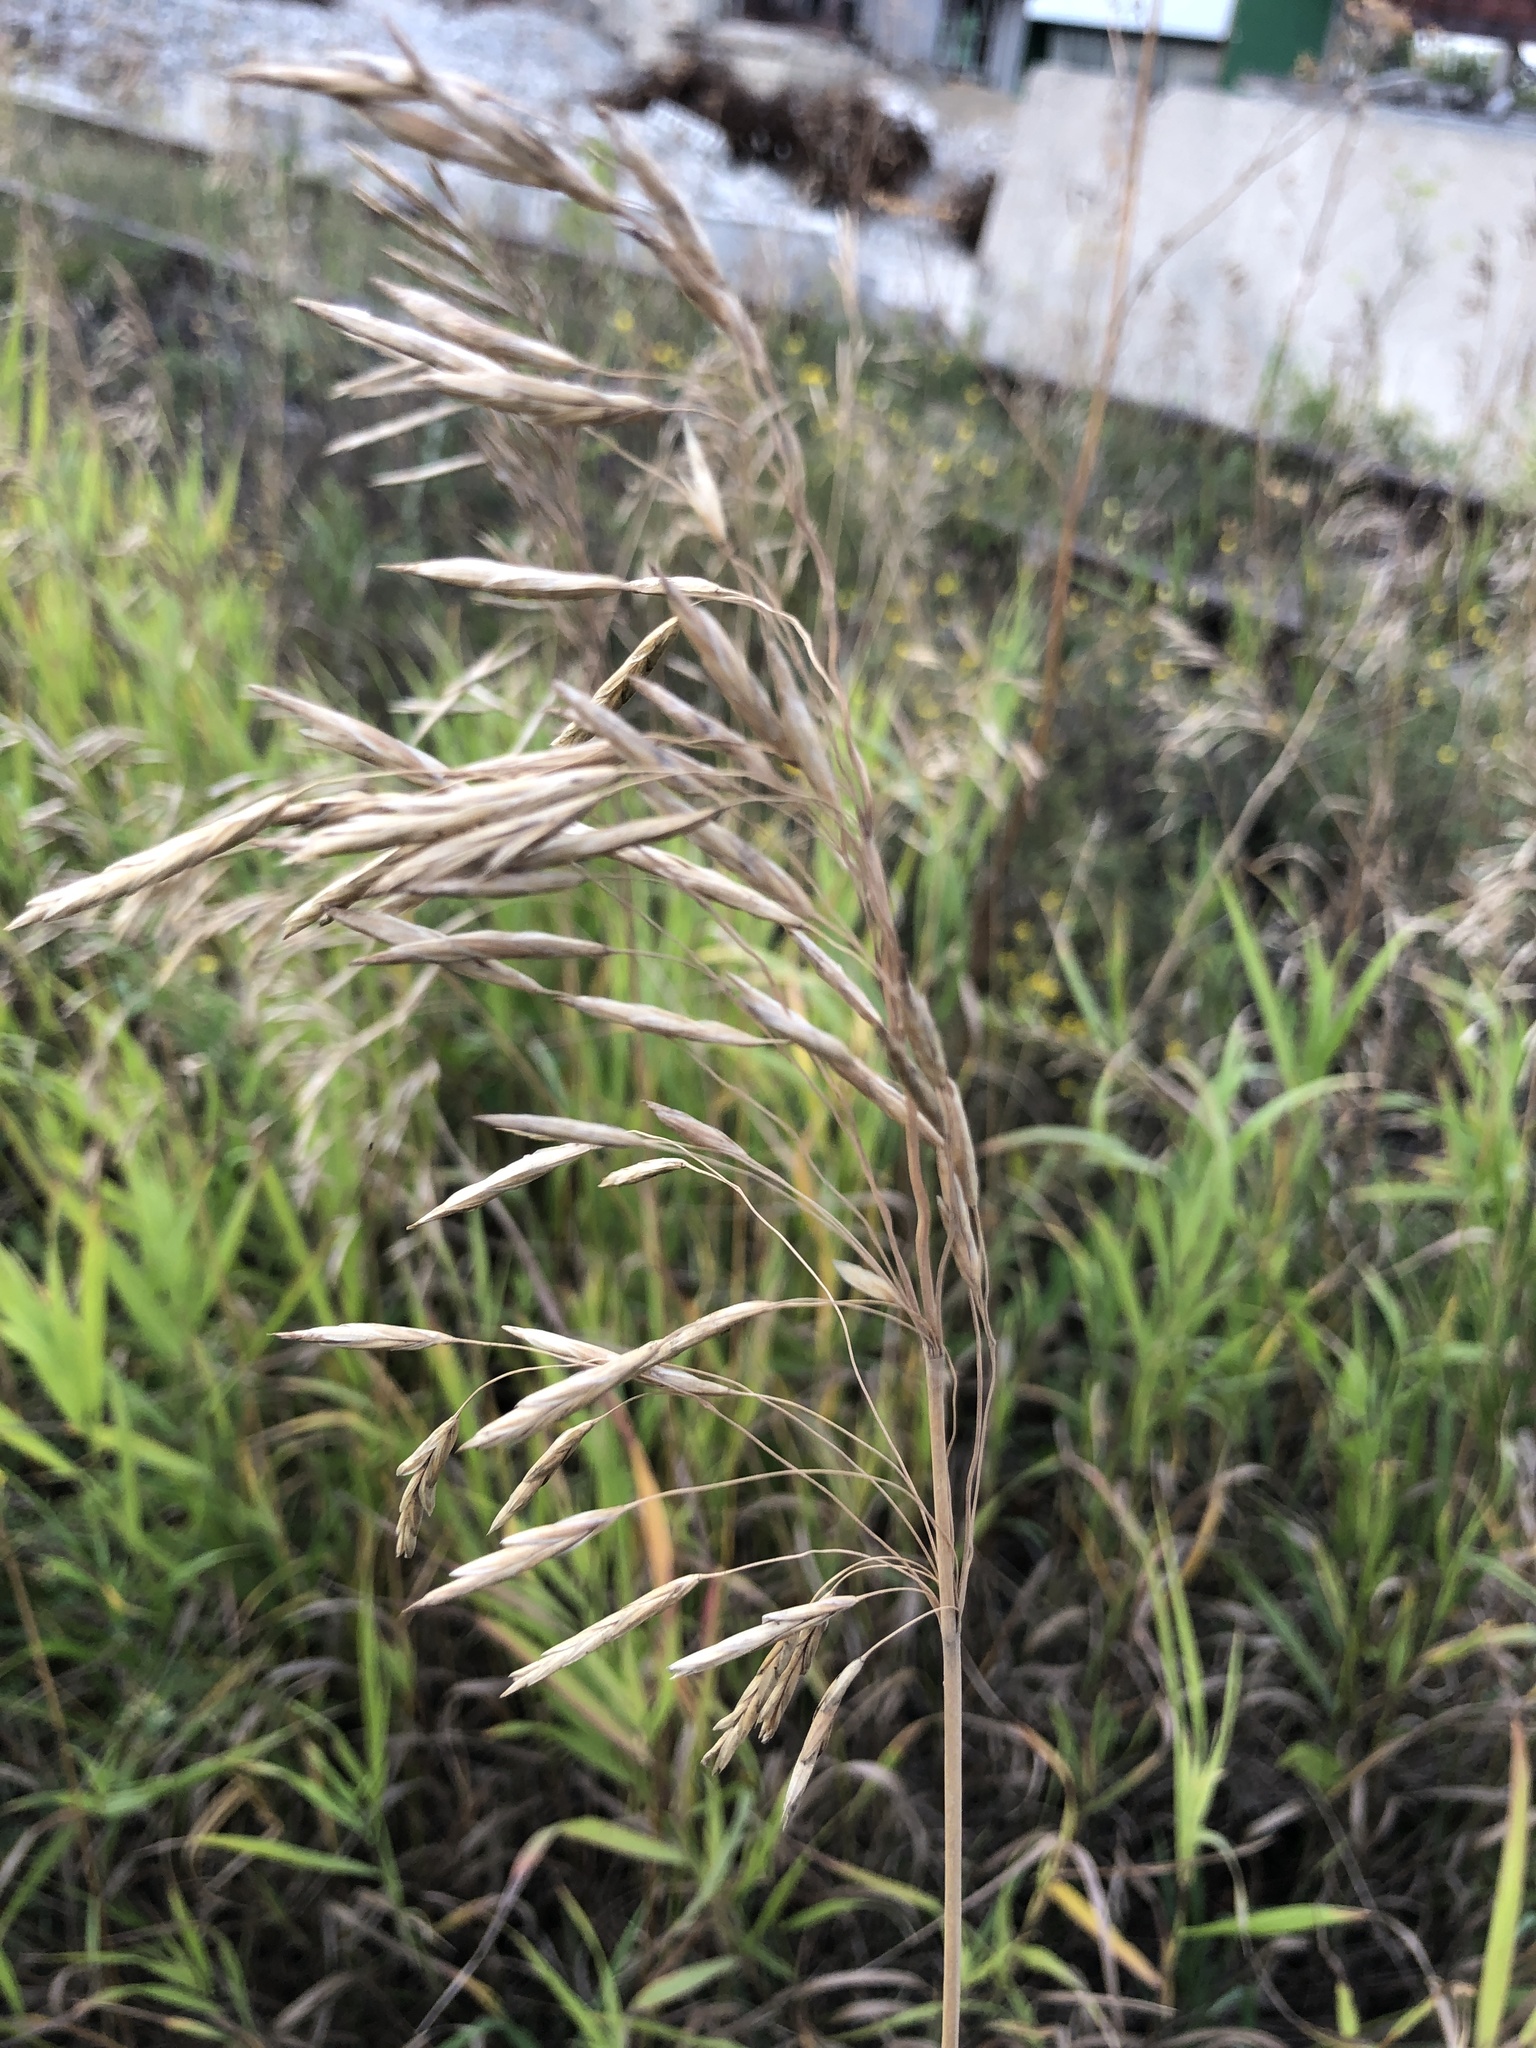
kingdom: Plantae
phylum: Tracheophyta
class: Liliopsida
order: Poales
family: Poaceae
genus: Bromus
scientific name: Bromus inermis
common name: Smooth brome
